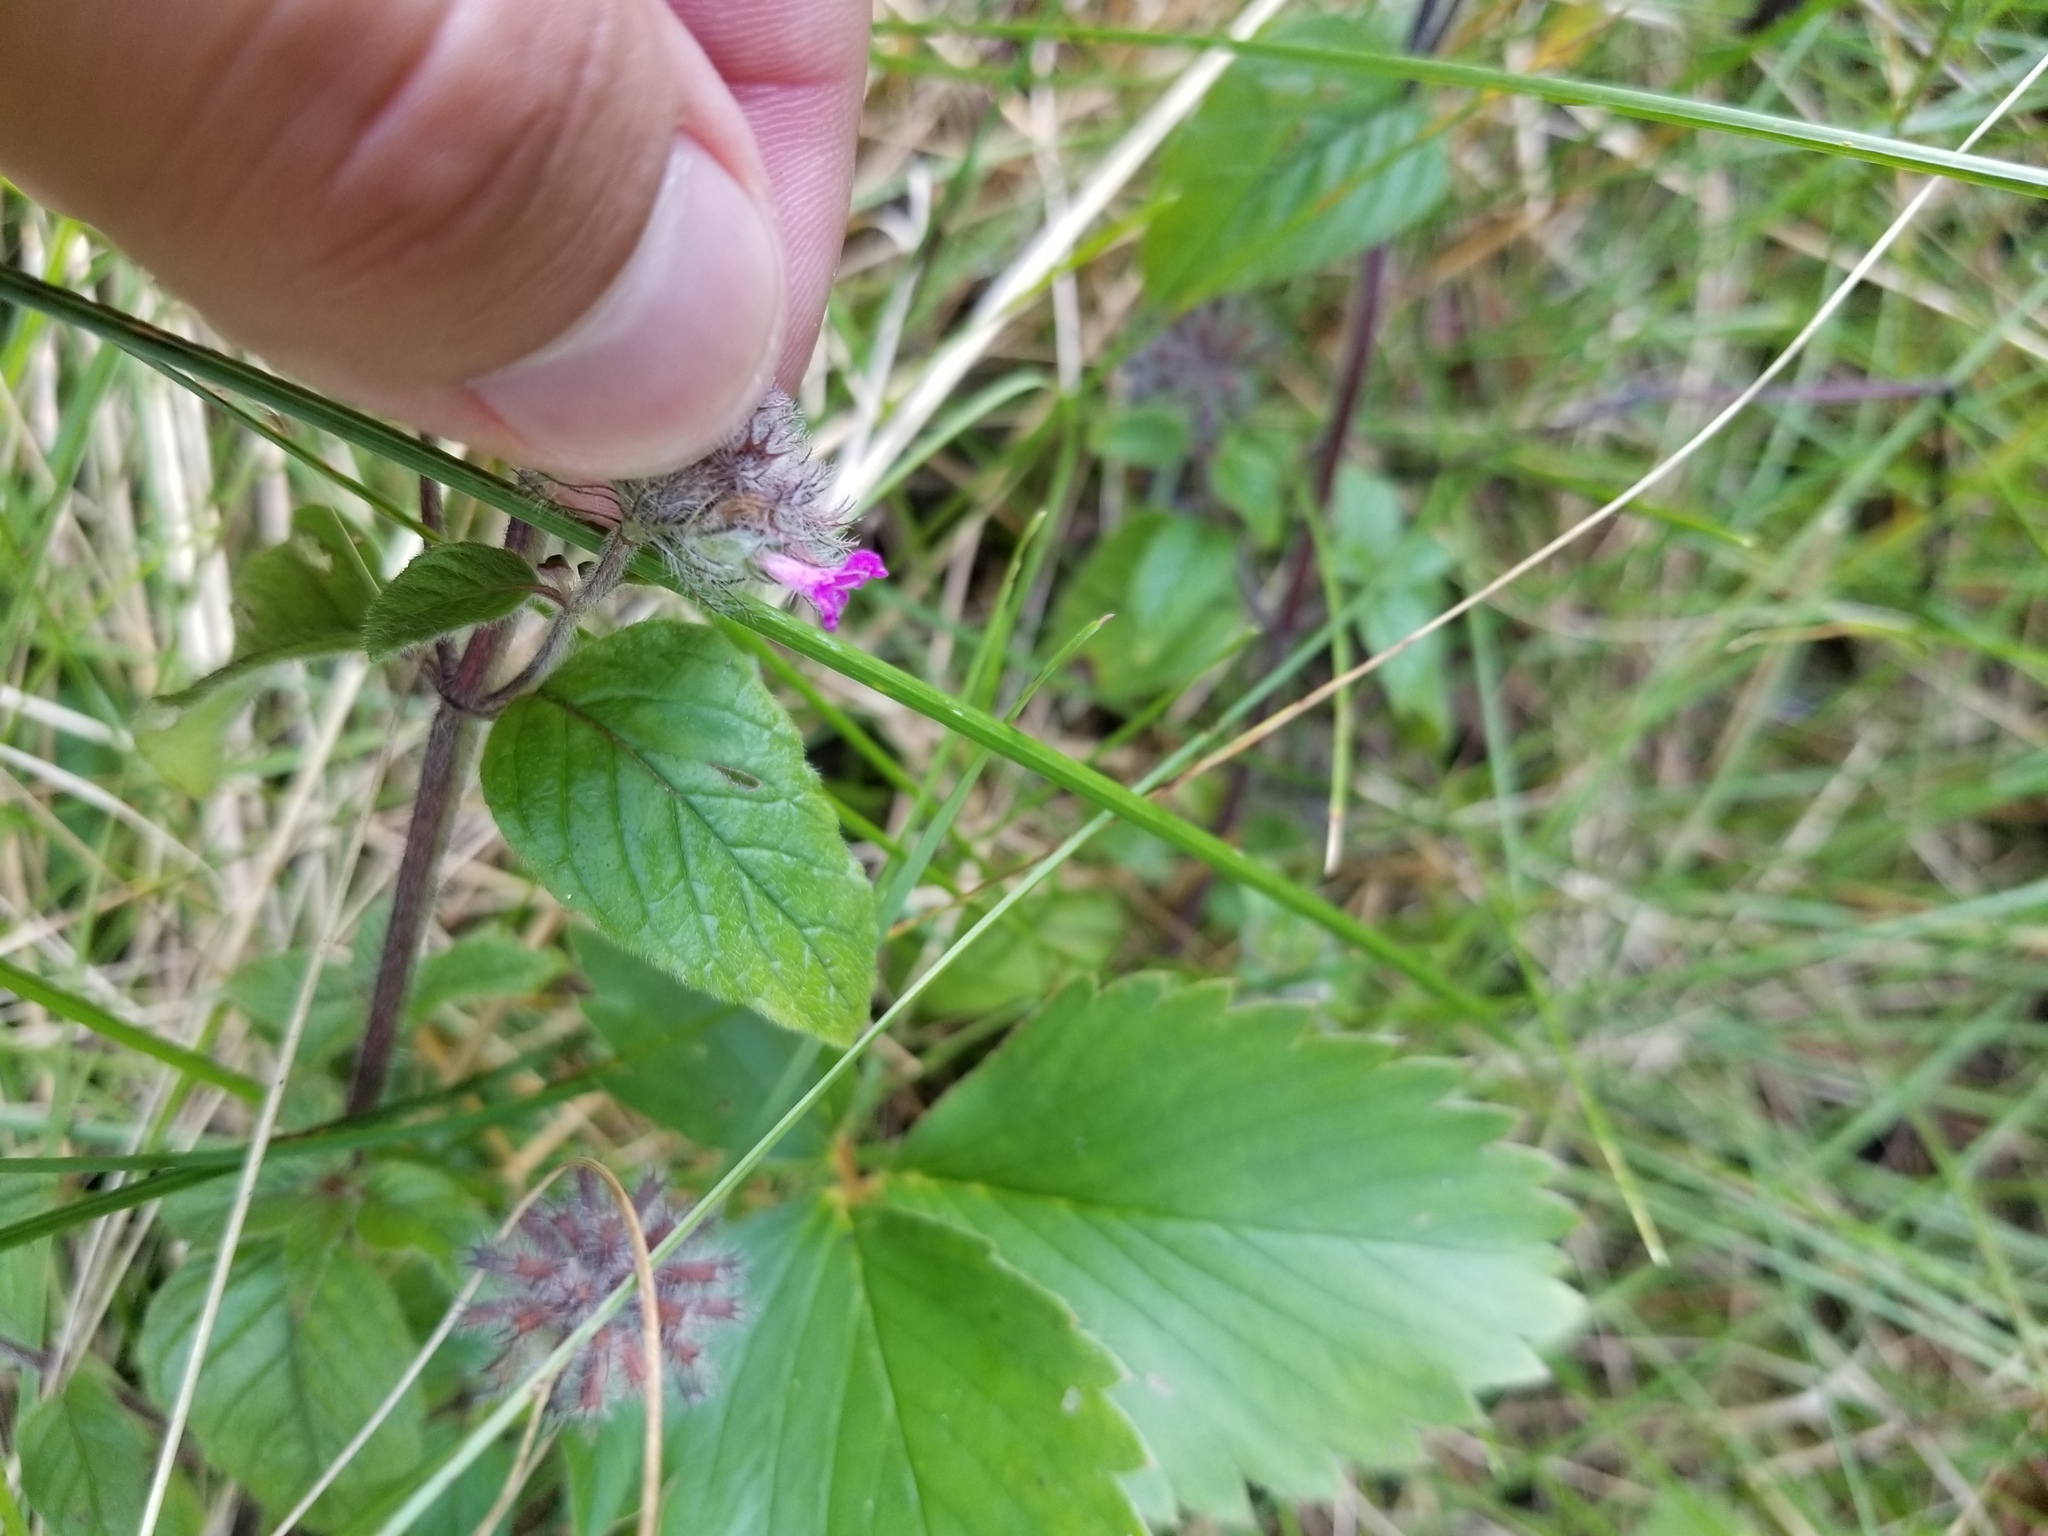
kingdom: Plantae
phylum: Tracheophyta
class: Magnoliopsida
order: Lamiales
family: Lamiaceae
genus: Clinopodium
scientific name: Clinopodium vulgare
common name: Wild basil
